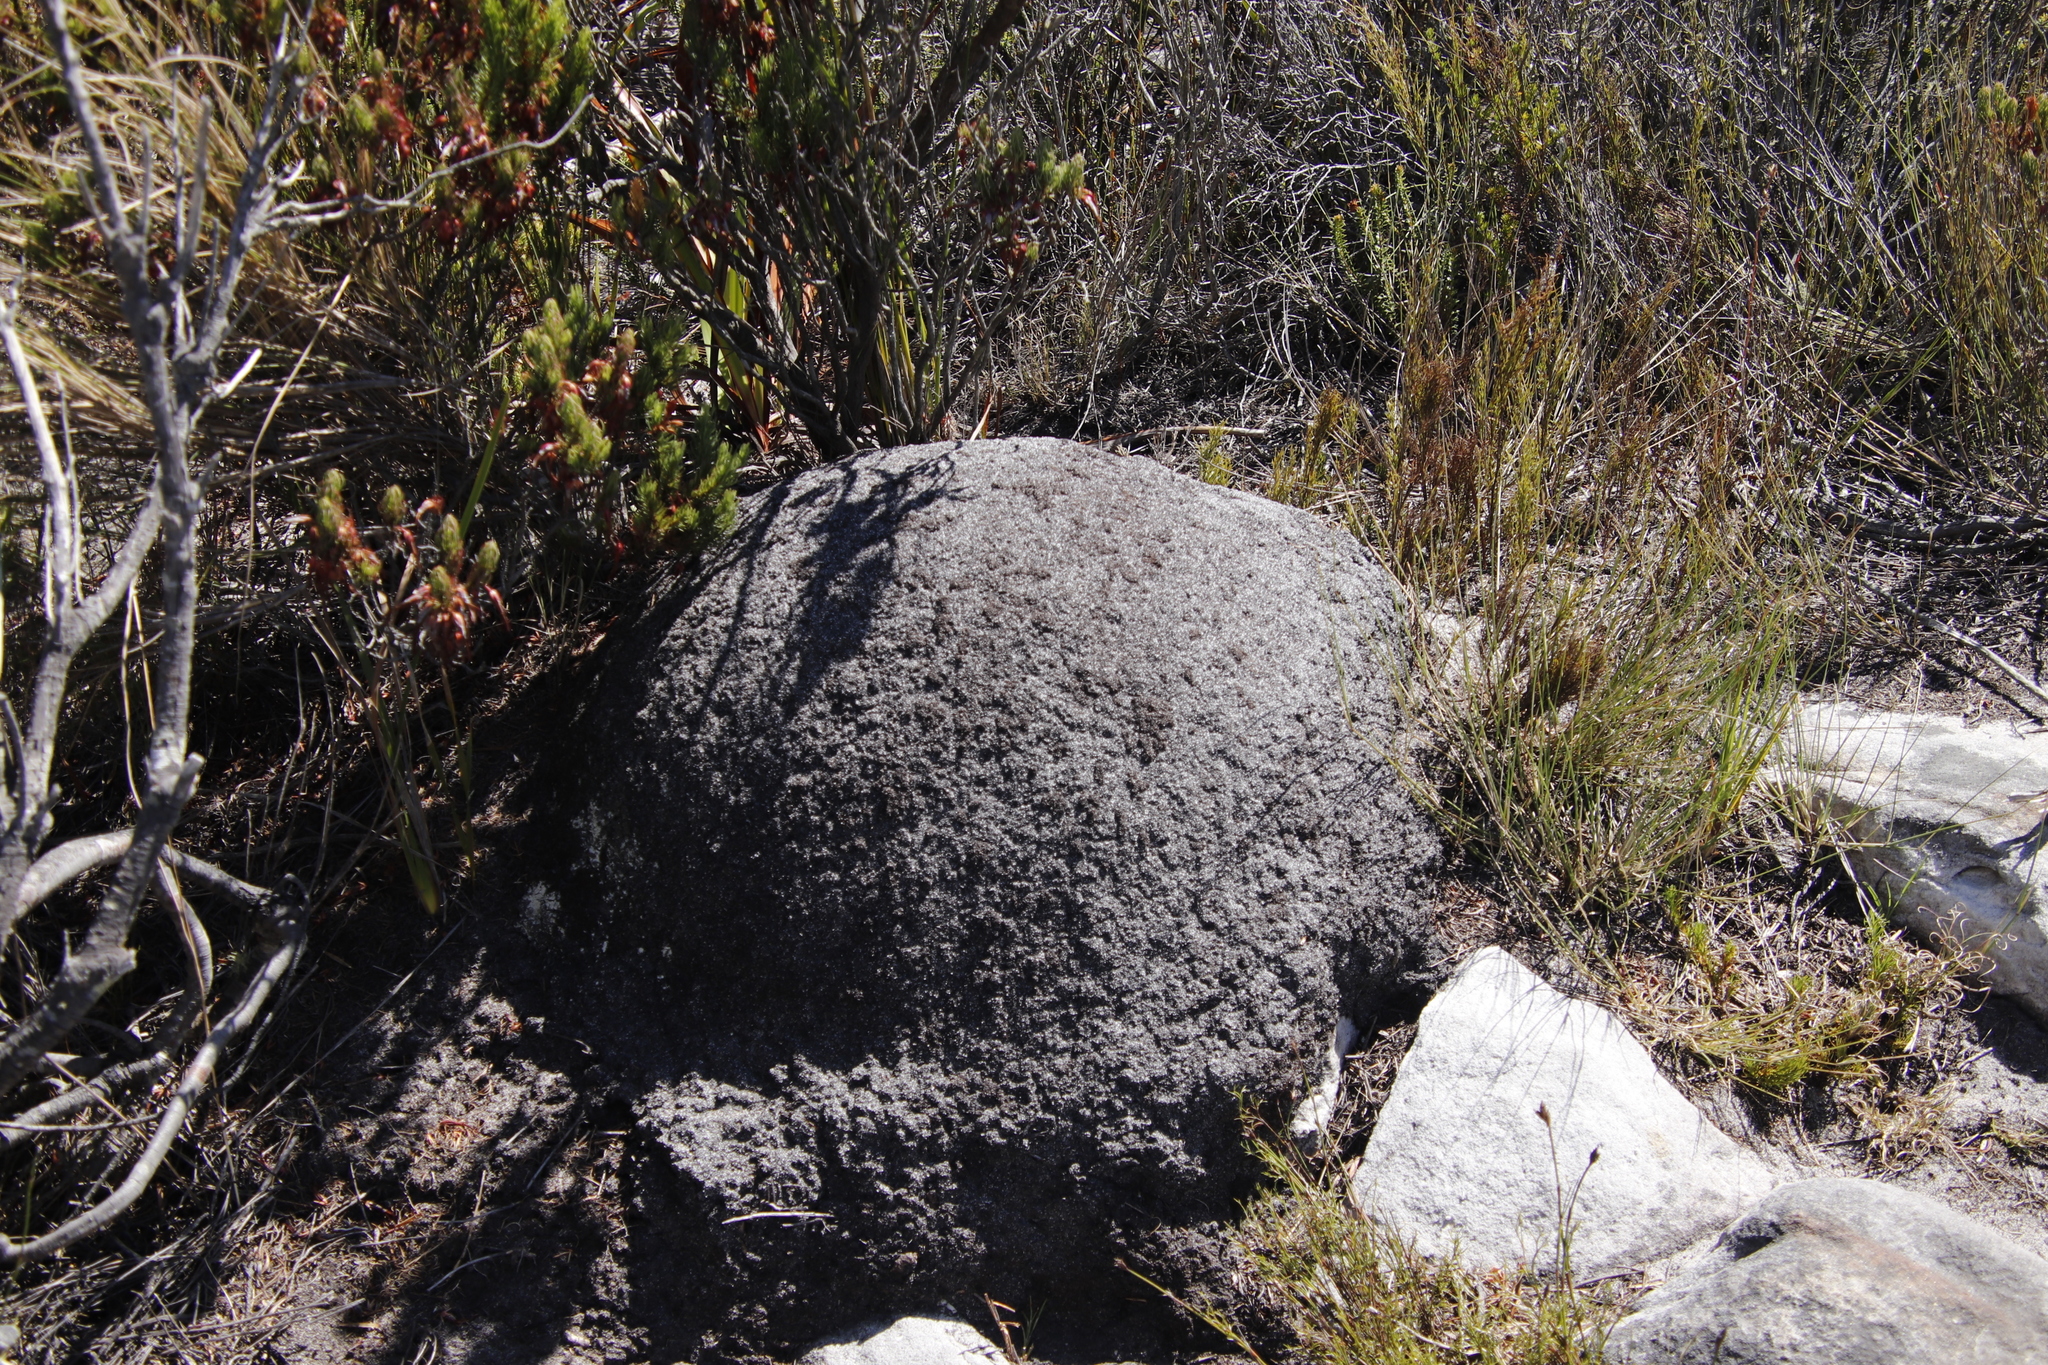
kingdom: Animalia
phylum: Arthropoda
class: Insecta
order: Blattodea
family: Termitidae
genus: Amitermes
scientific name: Amitermes hastatus
